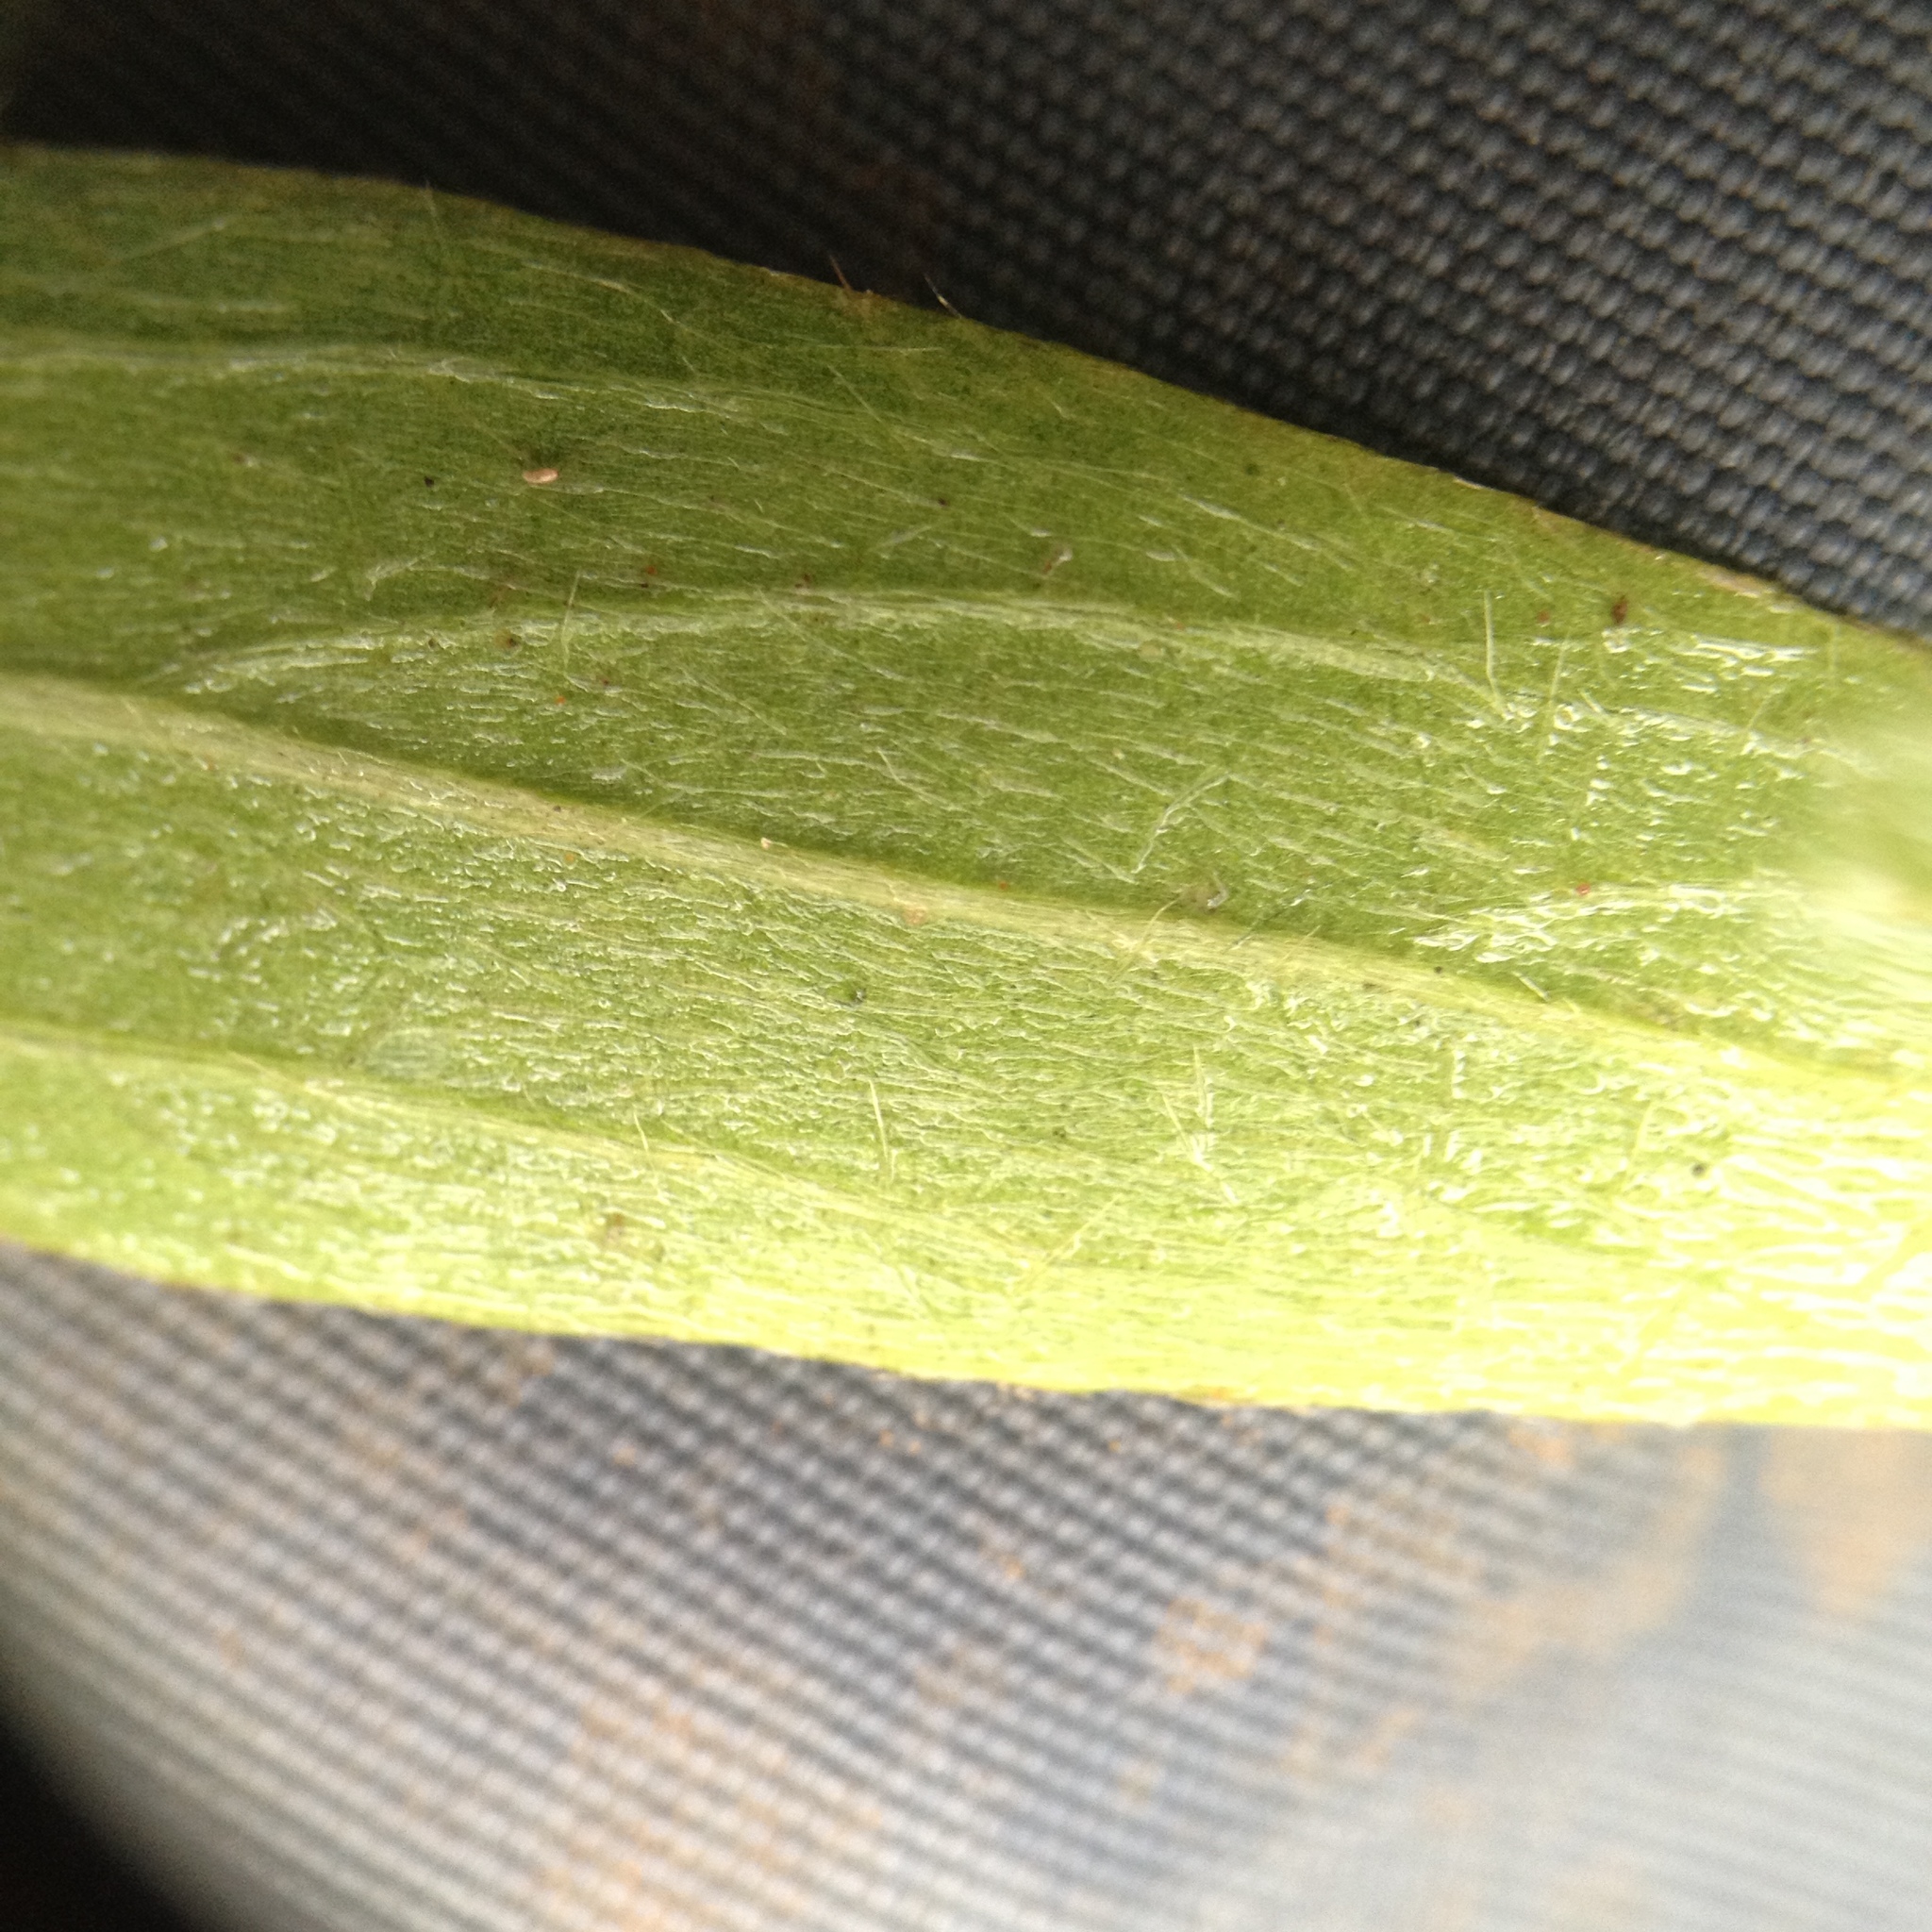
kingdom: Plantae
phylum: Tracheophyta
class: Magnoliopsida
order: Malpighiales
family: Euphorbiaceae
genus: Ditaxis
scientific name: Ditaxis breviramea
